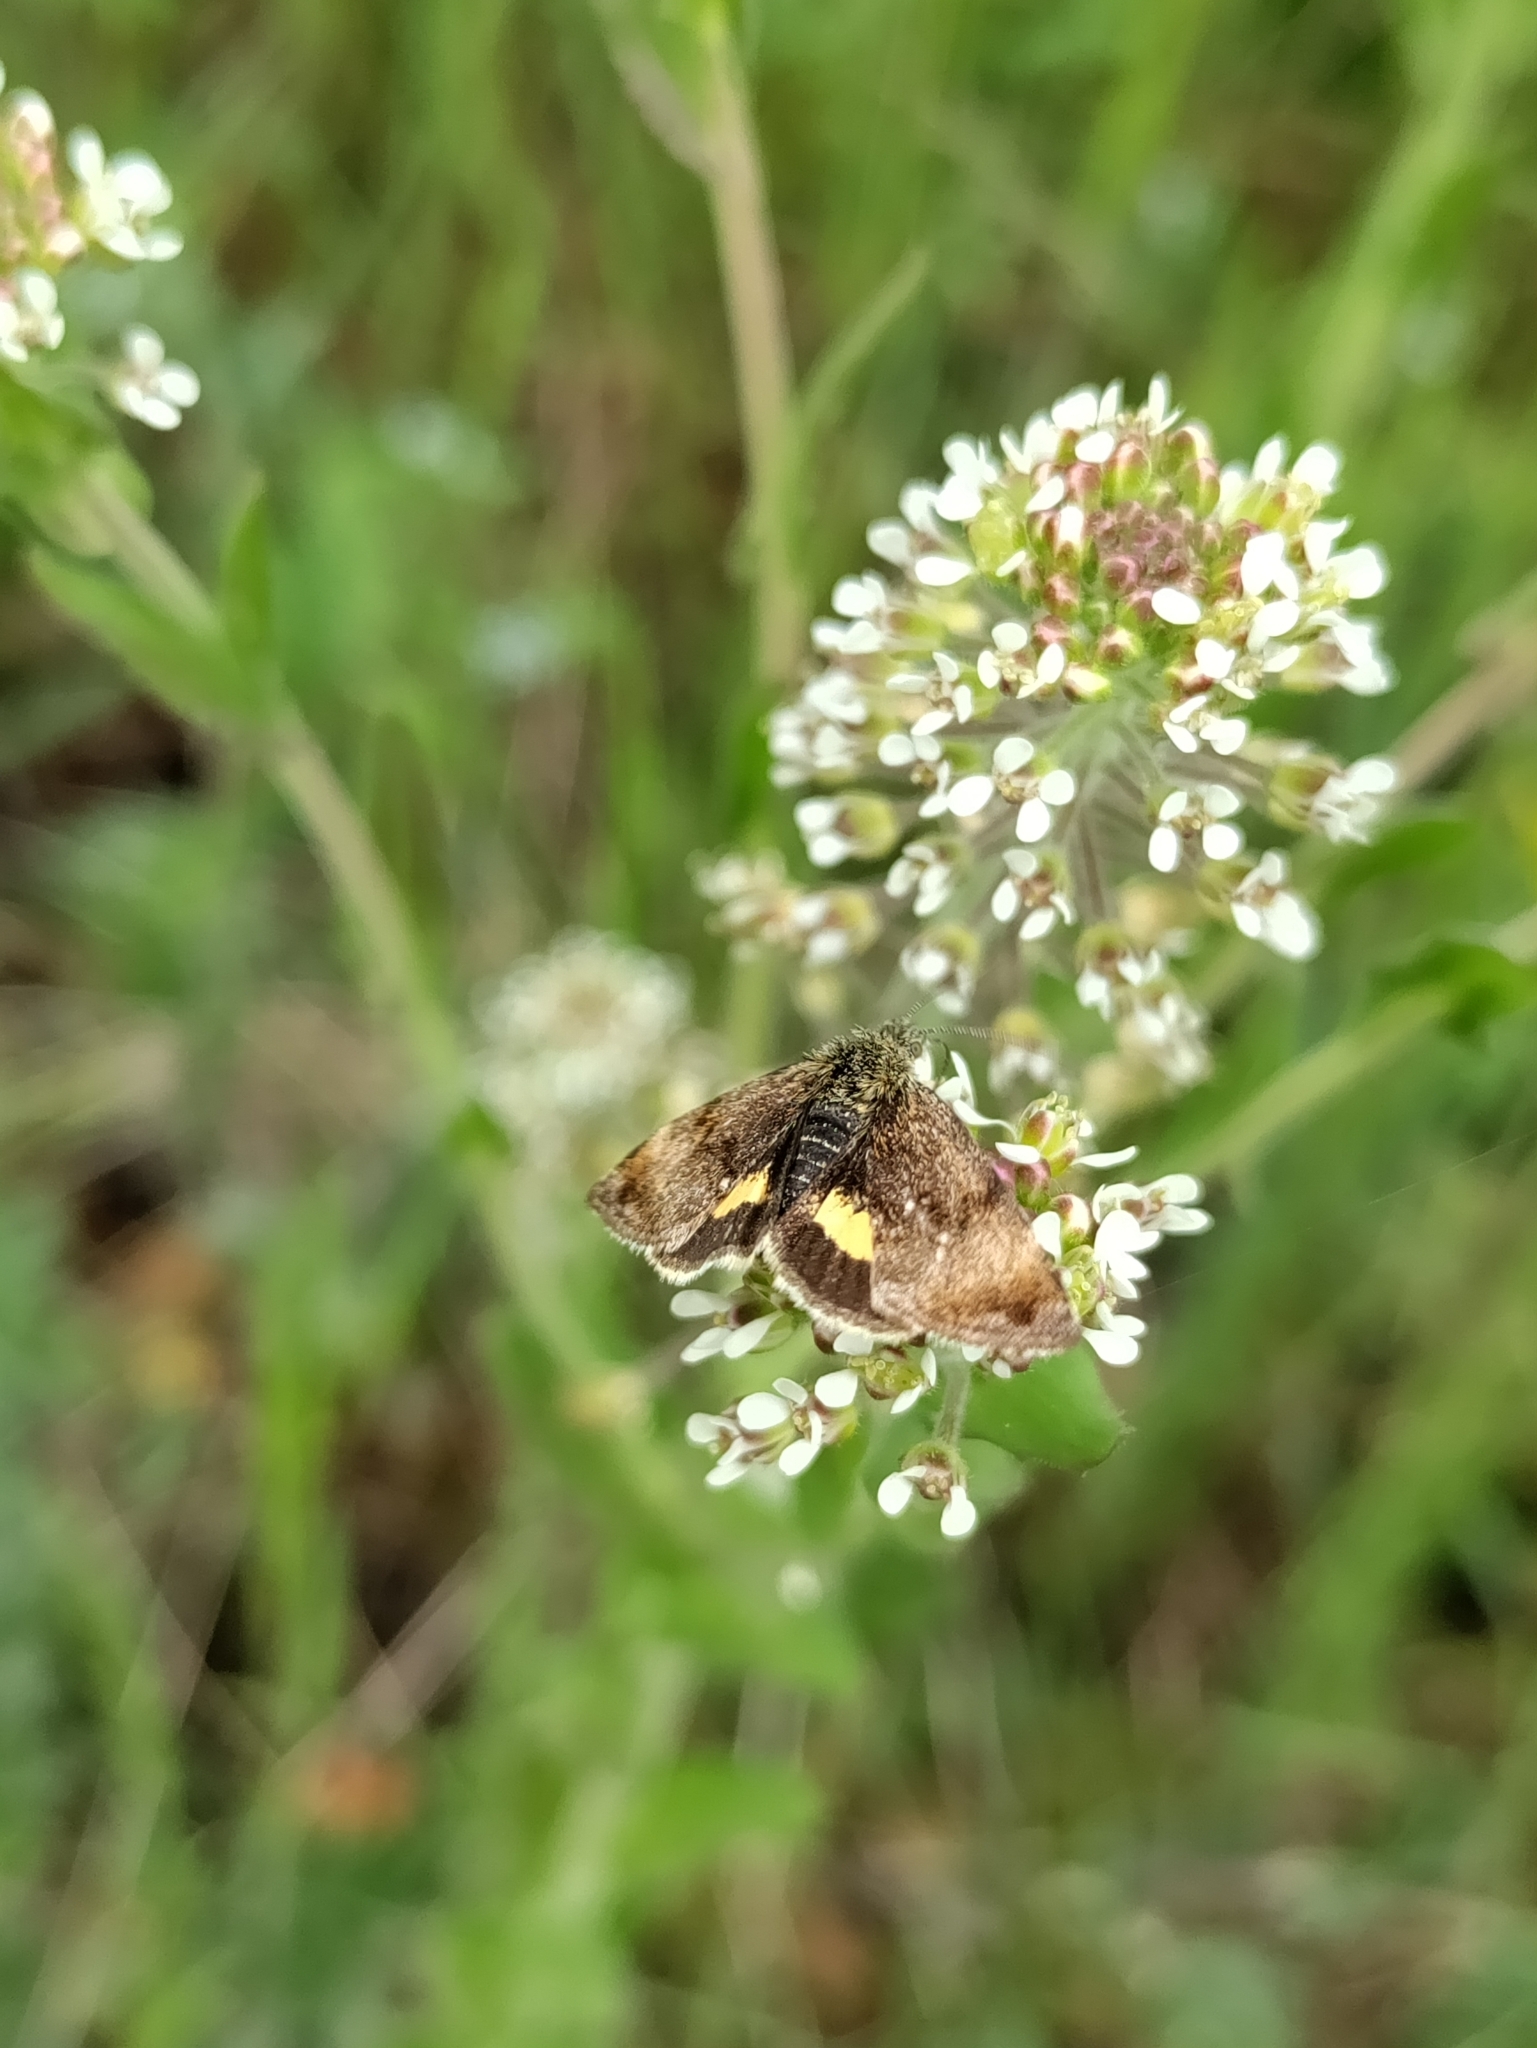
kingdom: Animalia
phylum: Arthropoda
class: Insecta
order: Lepidoptera
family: Noctuidae
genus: Panemeria
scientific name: Panemeria tenebrata
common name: Small yellow underwing
